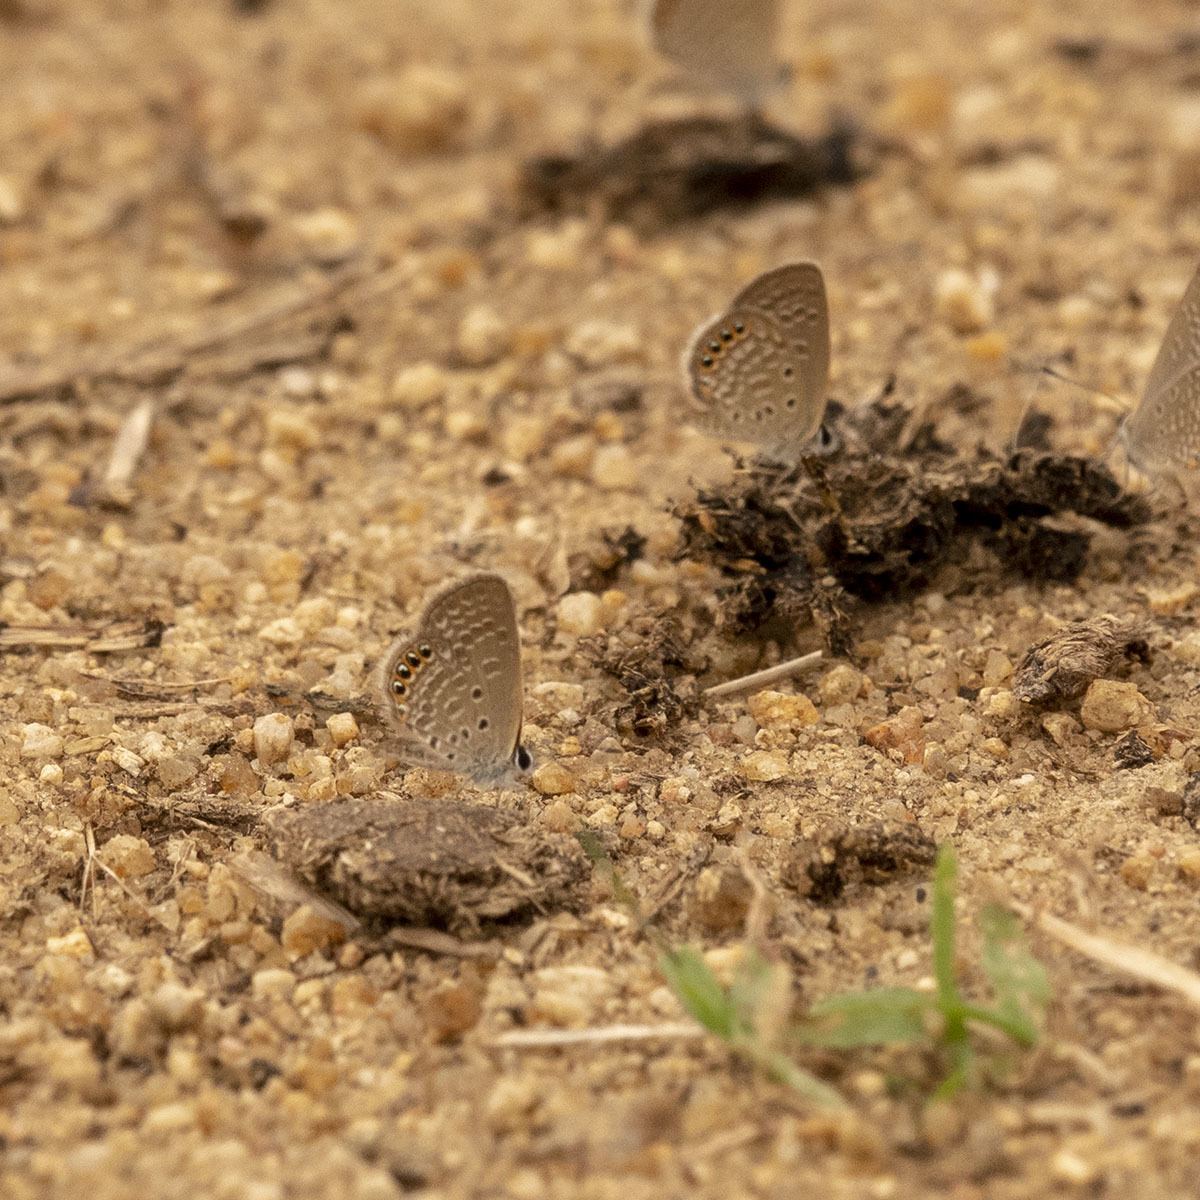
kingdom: Animalia
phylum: Arthropoda
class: Insecta
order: Lepidoptera
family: Lycaenidae
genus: Freyeria
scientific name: Freyeria putli
